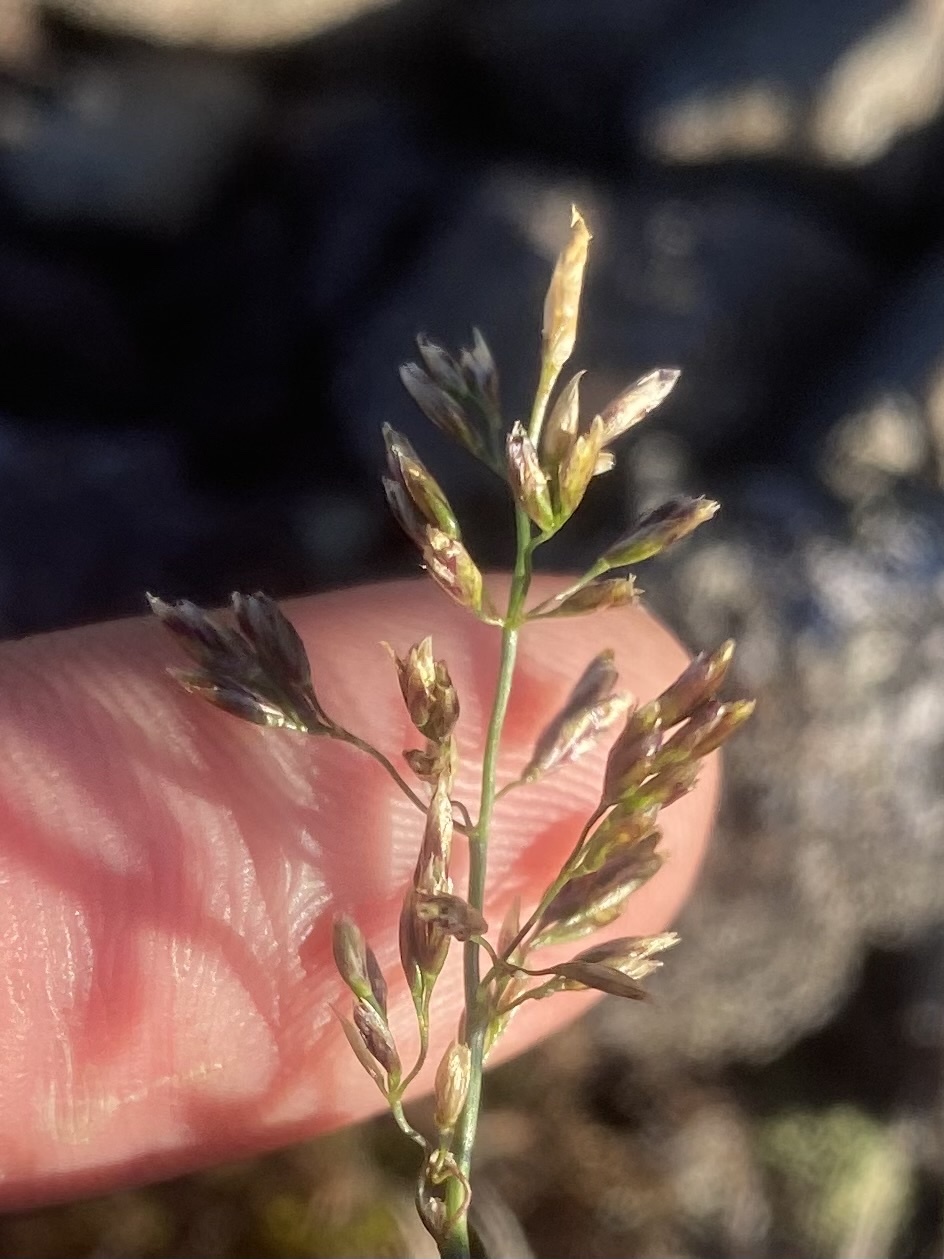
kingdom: Plantae
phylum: Tracheophyta
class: Liliopsida
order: Poales
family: Poaceae
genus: Deschampsia
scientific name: Deschampsia cespitosa
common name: Tufted hair-grass
